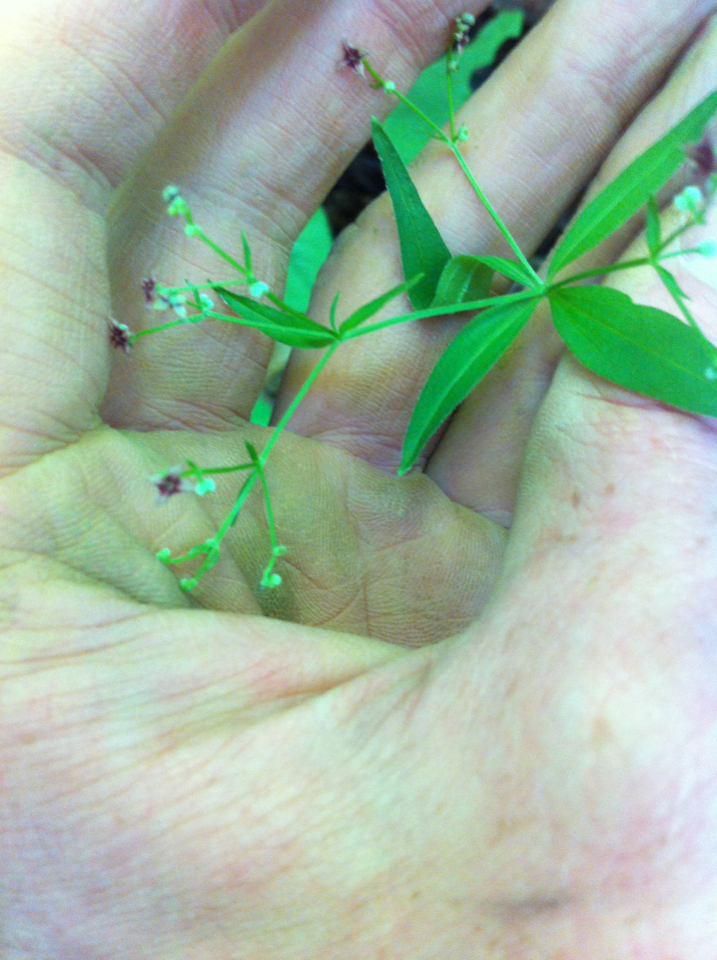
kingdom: Plantae
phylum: Tracheophyta
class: Magnoliopsida
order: Gentianales
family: Rubiaceae
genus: Galium
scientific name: Galium lanceolatum
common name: Lance-leaved wild licorice
